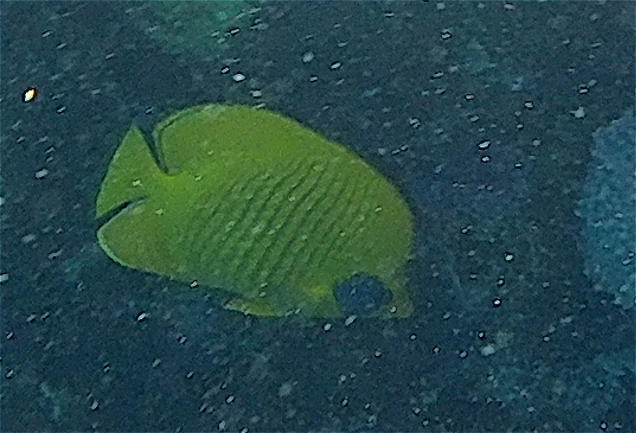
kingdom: Animalia
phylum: Chordata
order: Perciformes
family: Chaetodontidae
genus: Chaetodon
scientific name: Chaetodon semilarvatus
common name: Golden butterflyfish
